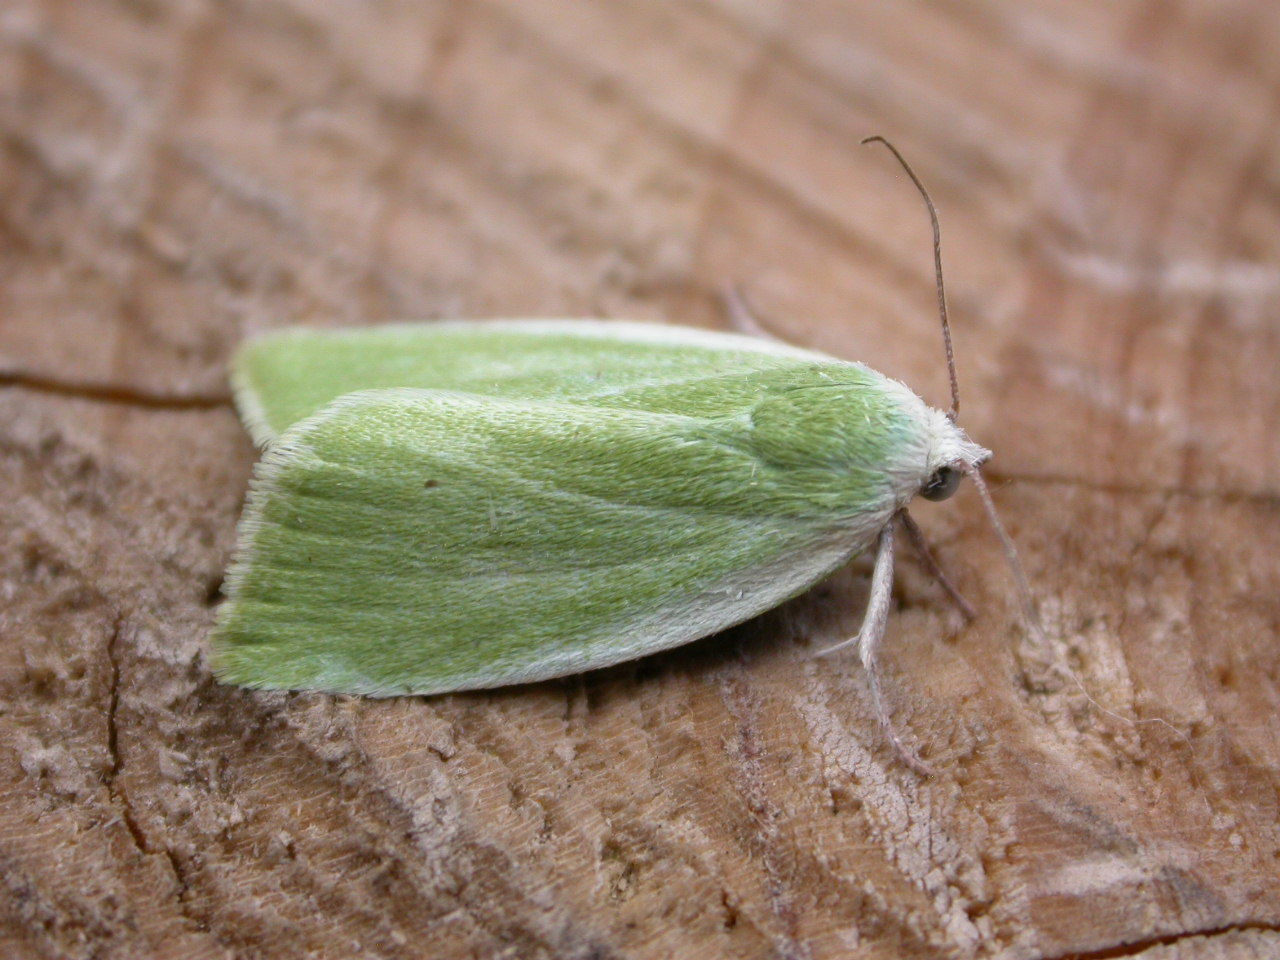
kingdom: Animalia
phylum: Arthropoda
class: Insecta
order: Lepidoptera
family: Nolidae
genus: Earias
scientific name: Earias clorana
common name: Cream-bordered green pea
